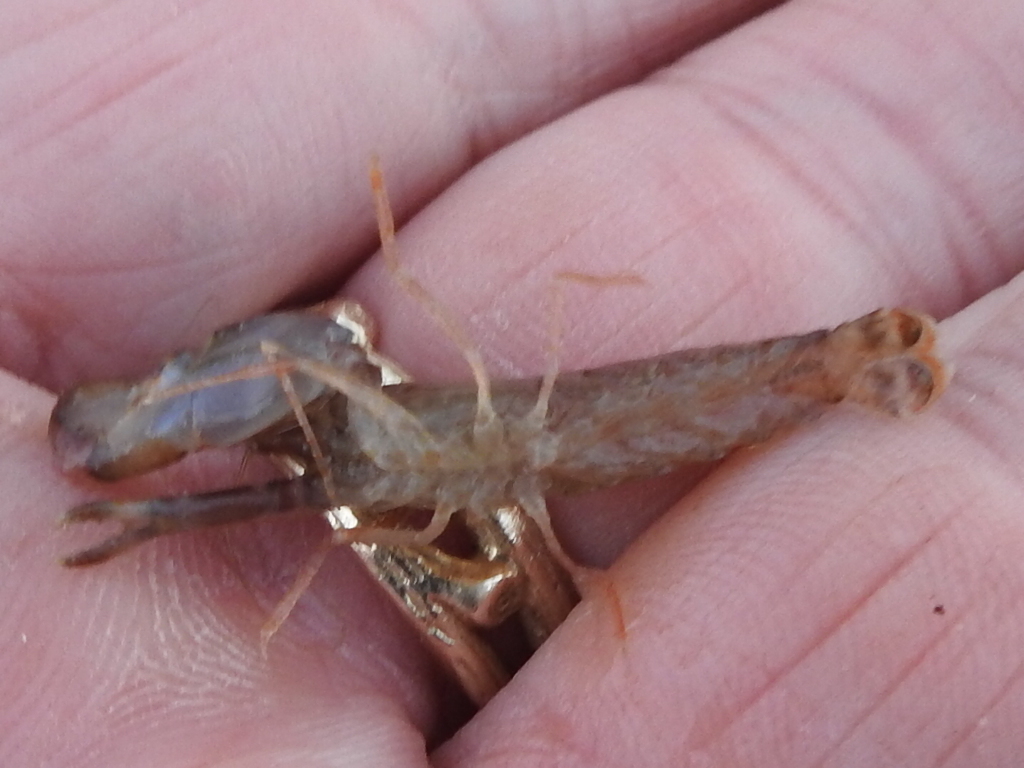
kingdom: Animalia
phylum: Arthropoda
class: Malacostraca
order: Decapoda
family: Alpheidae
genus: Alpheus
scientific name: Alpheus nuttingi
